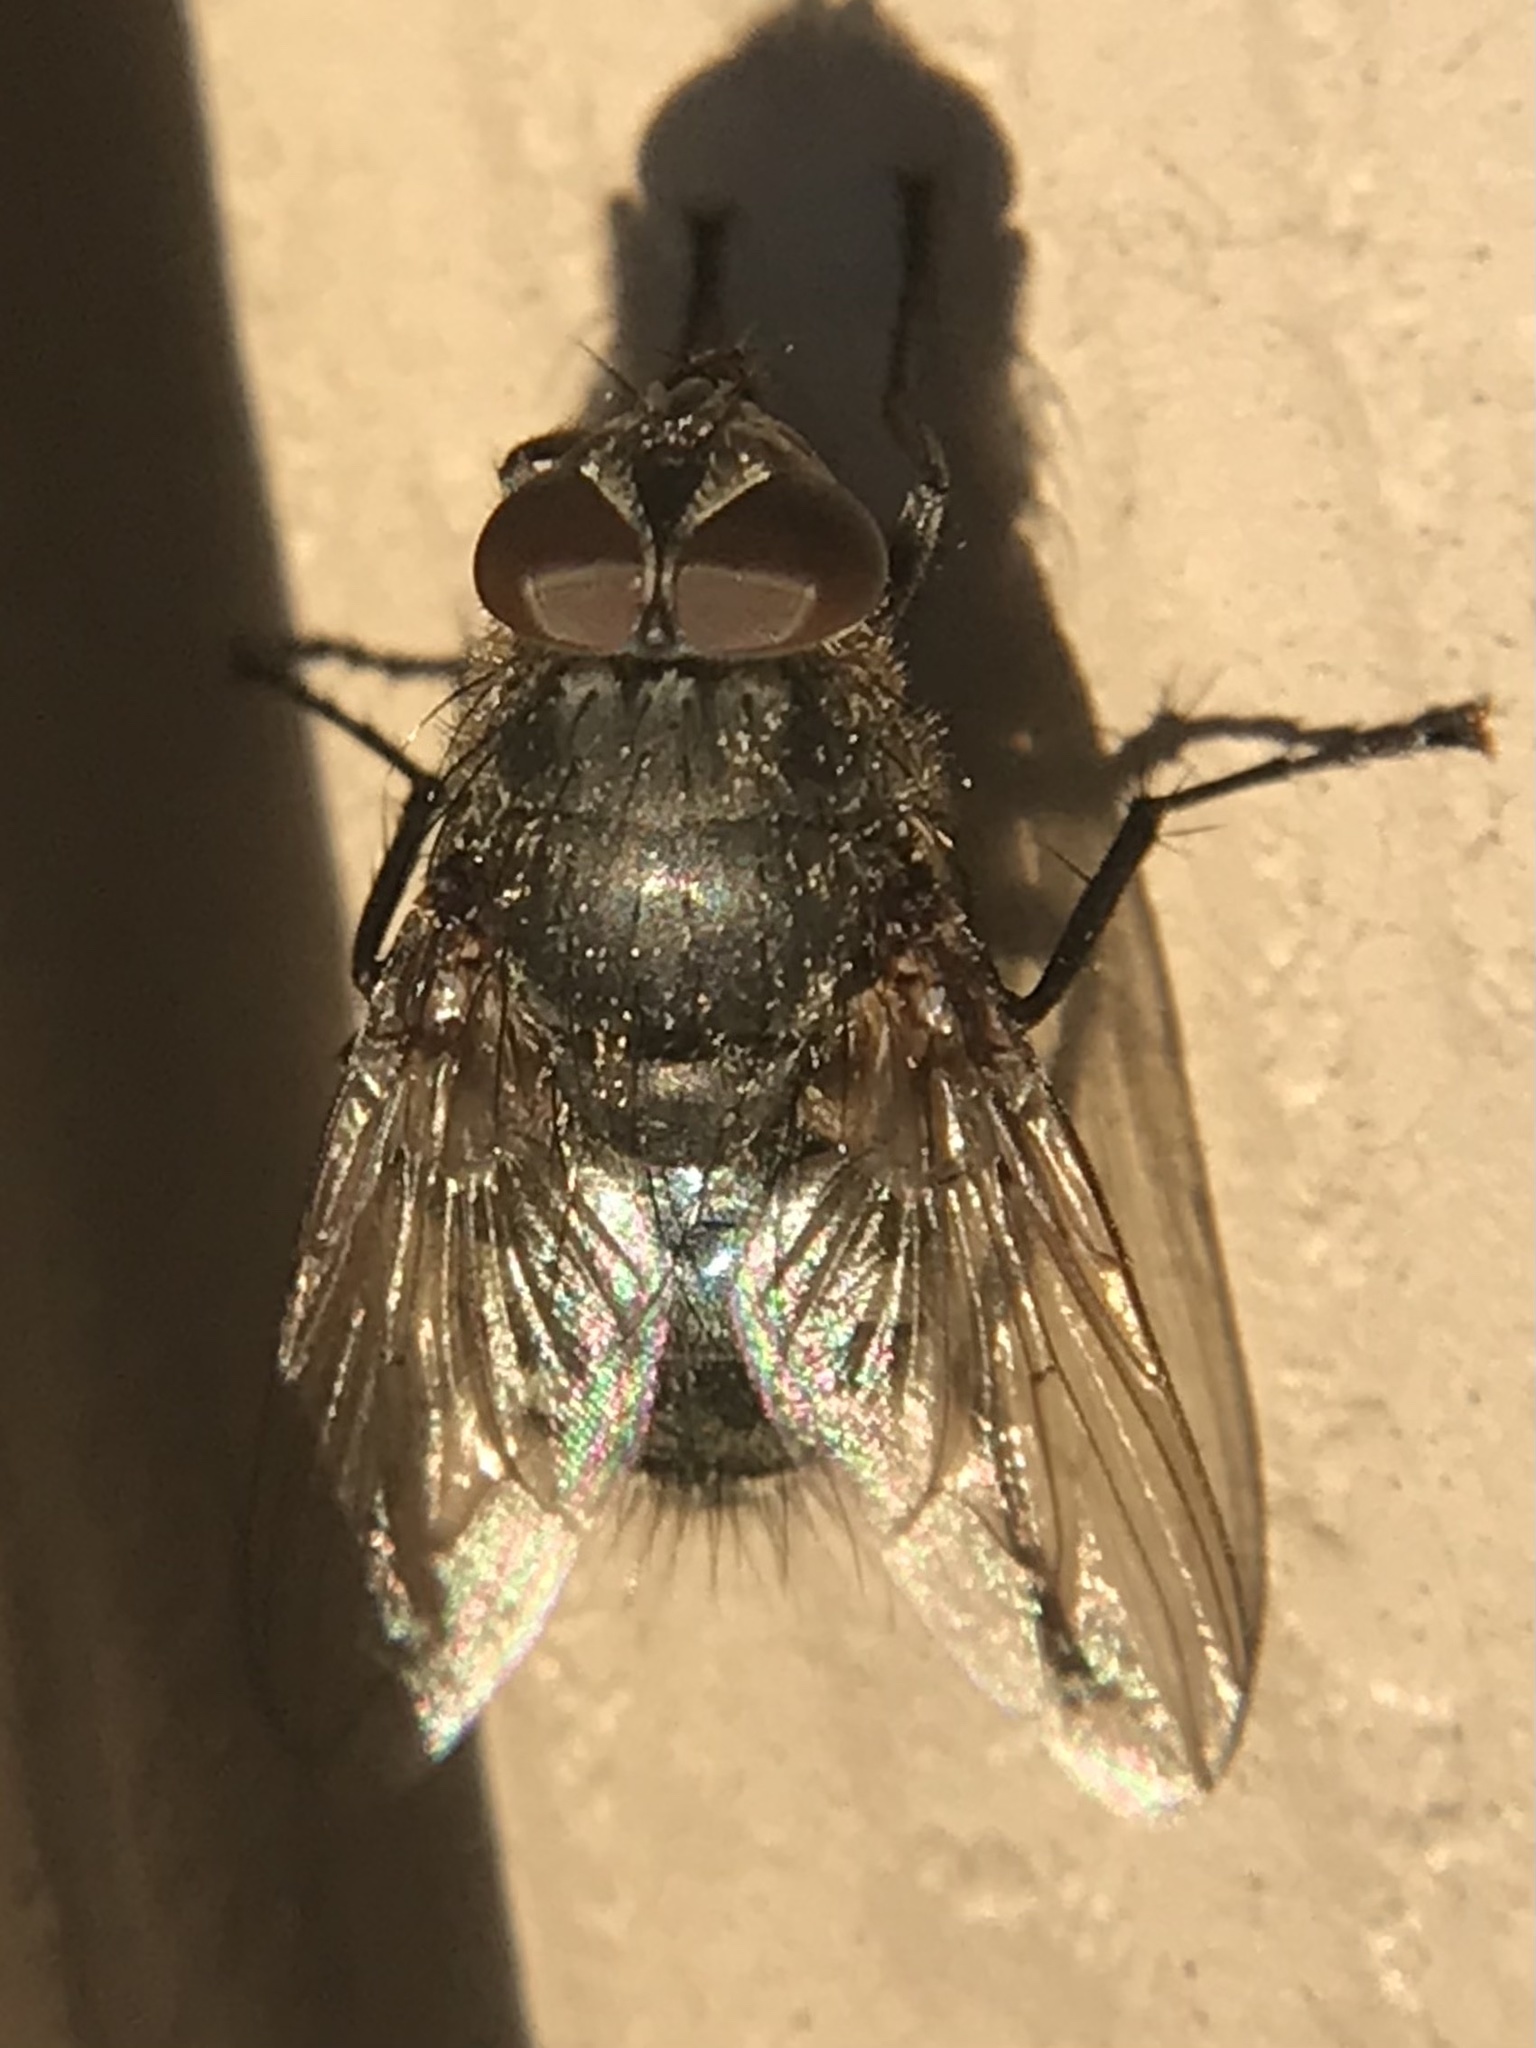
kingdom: Animalia
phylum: Arthropoda
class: Insecta
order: Diptera
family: Polleniidae
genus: Pollenia
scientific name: Pollenia
